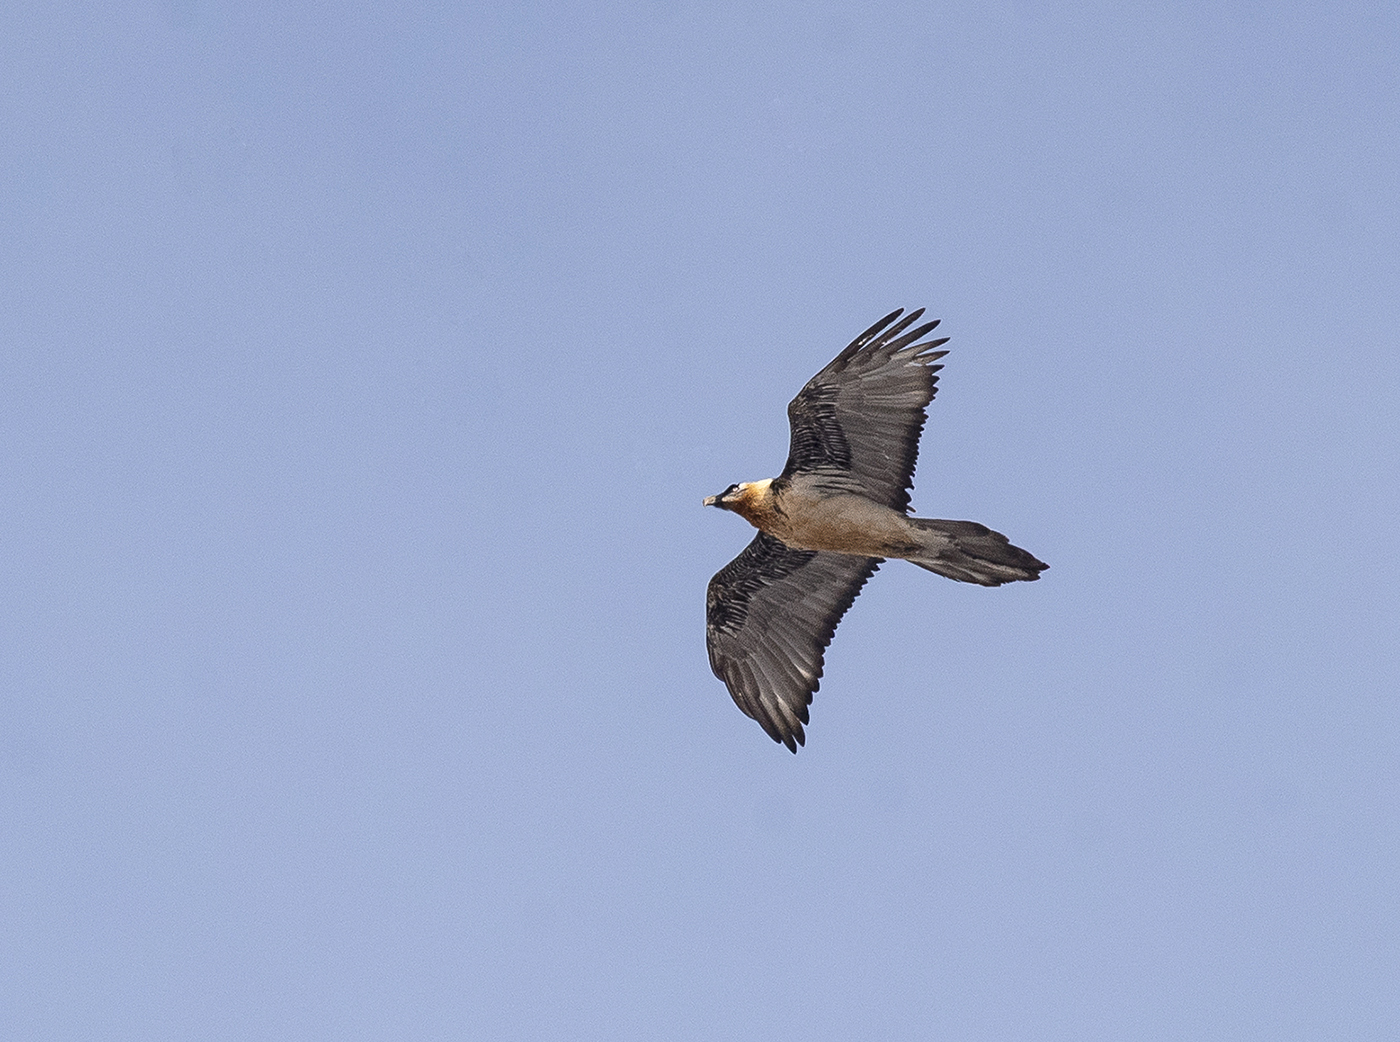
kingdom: Animalia
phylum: Chordata
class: Aves
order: Accipitriformes
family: Accipitridae
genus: Gypaetus
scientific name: Gypaetus barbatus
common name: Bearded vulture
